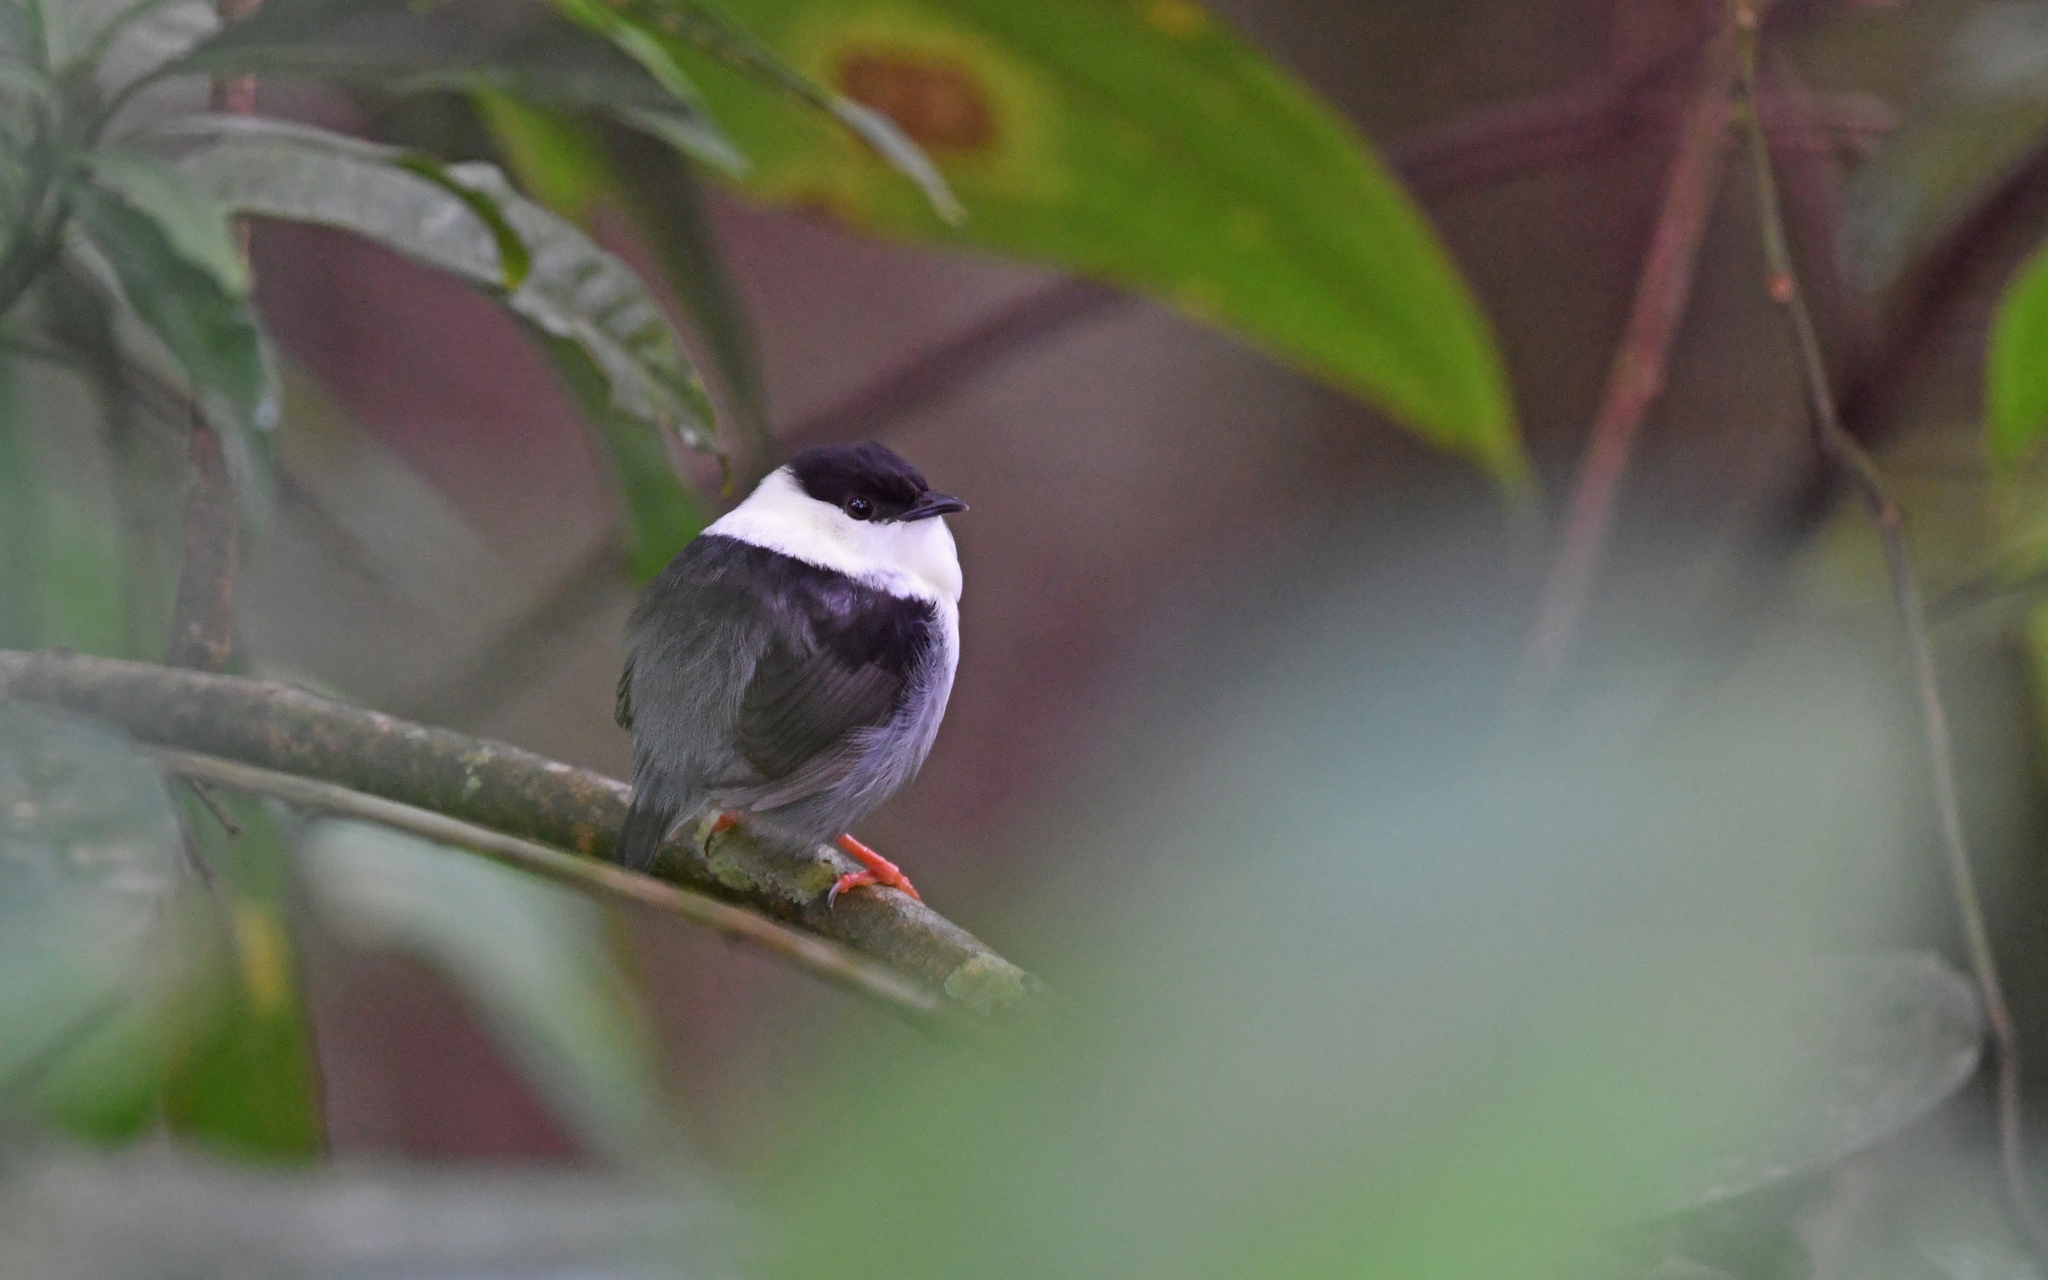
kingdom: Animalia
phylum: Chordata
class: Aves
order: Passeriformes
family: Pipridae
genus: Manacus
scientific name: Manacus manacus
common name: White-bearded manakin
